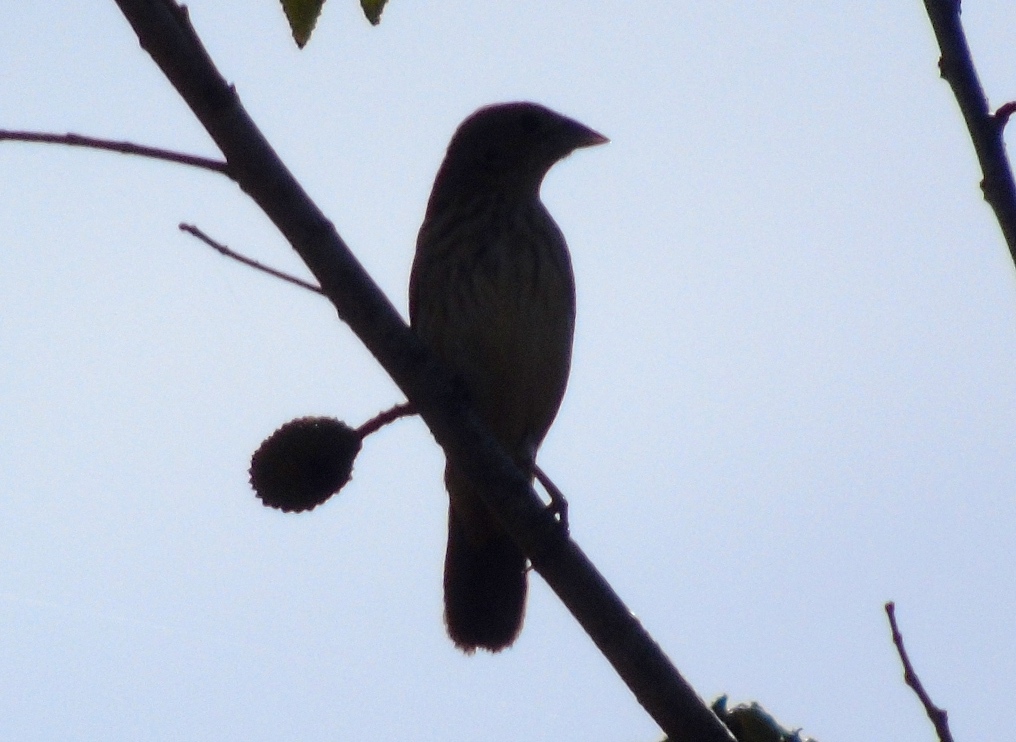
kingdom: Animalia
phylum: Chordata
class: Aves
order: Passeriformes
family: Fringillidae
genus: Haemorhous
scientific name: Haemorhous mexicanus
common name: House finch
